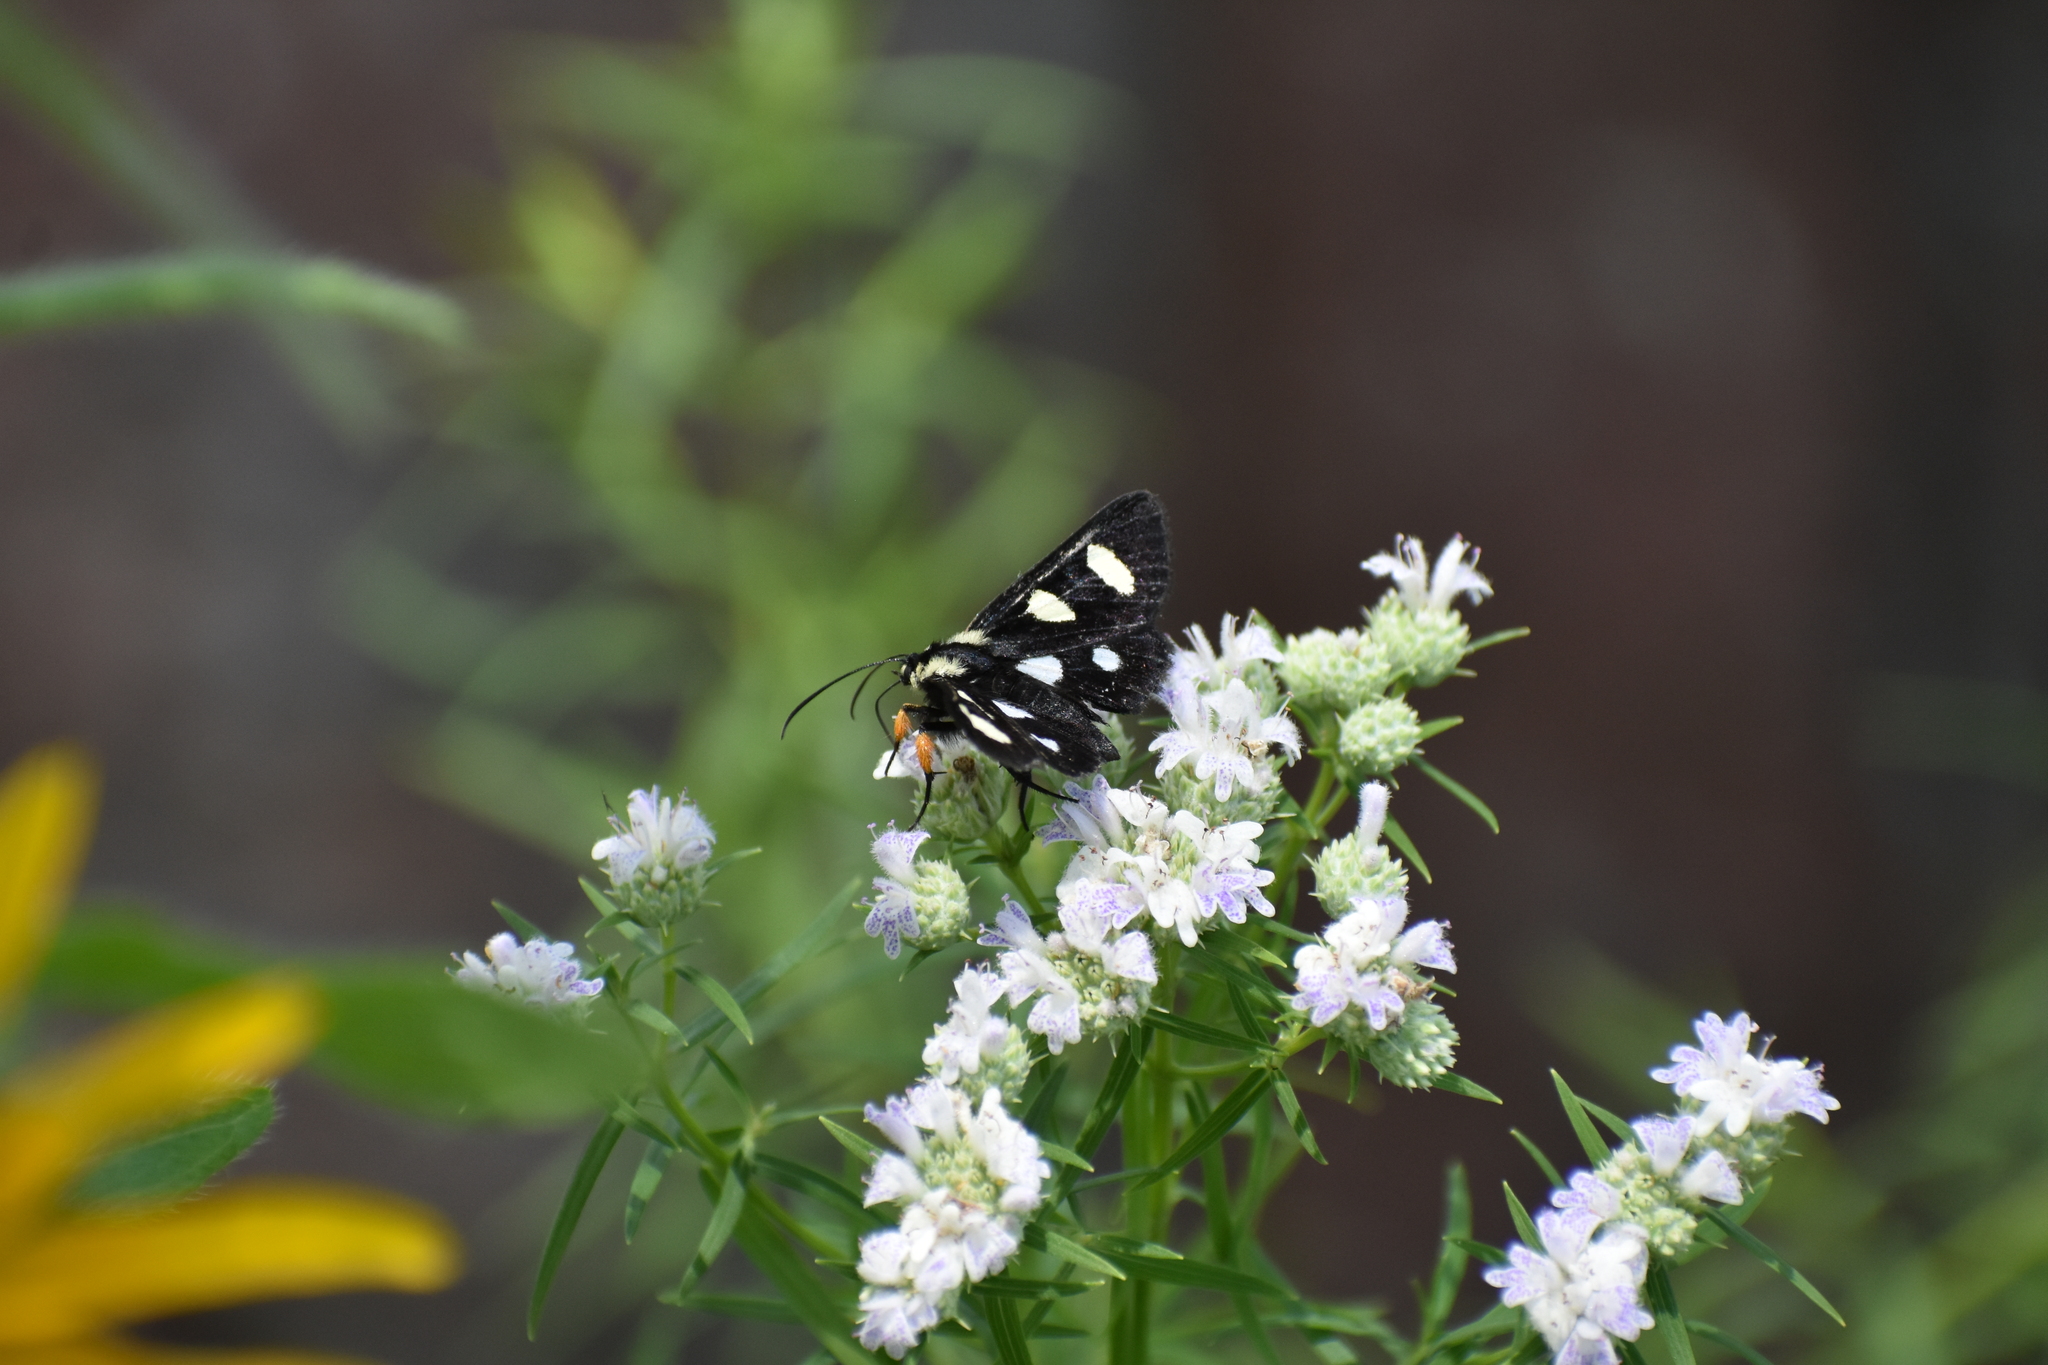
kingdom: Animalia
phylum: Arthropoda
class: Insecta
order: Lepidoptera
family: Noctuidae
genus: Alypia
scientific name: Alypia octomaculata
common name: Eight-spotted forester
